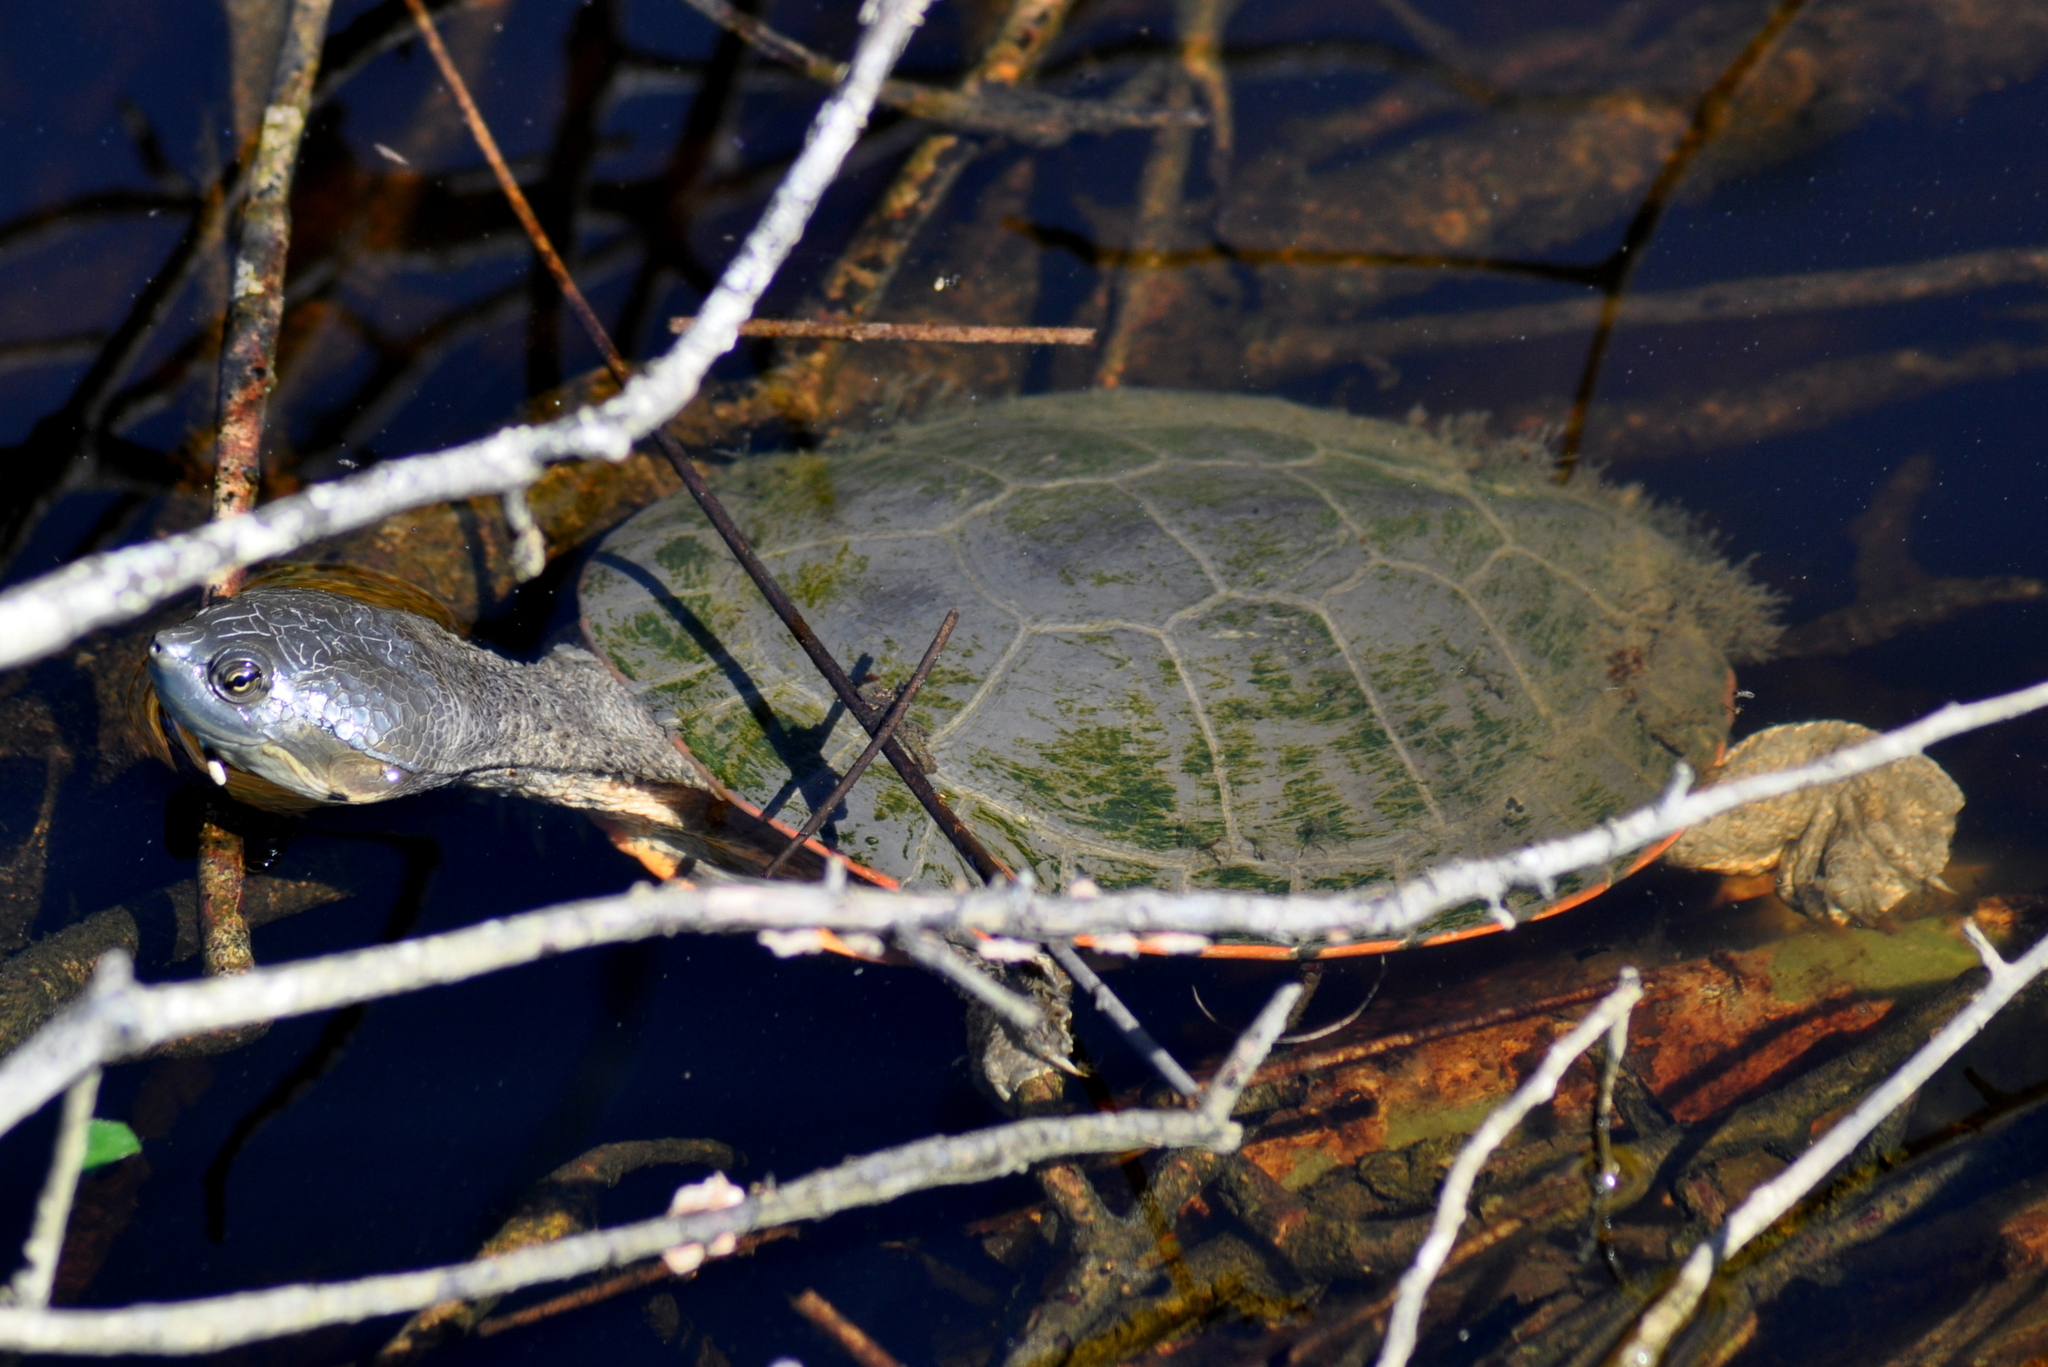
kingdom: Animalia
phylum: Chordata
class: Testudines
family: Chelidae
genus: Phrynops
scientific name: Phrynops hilarii
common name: Side-necked turtle of saint hillaire
